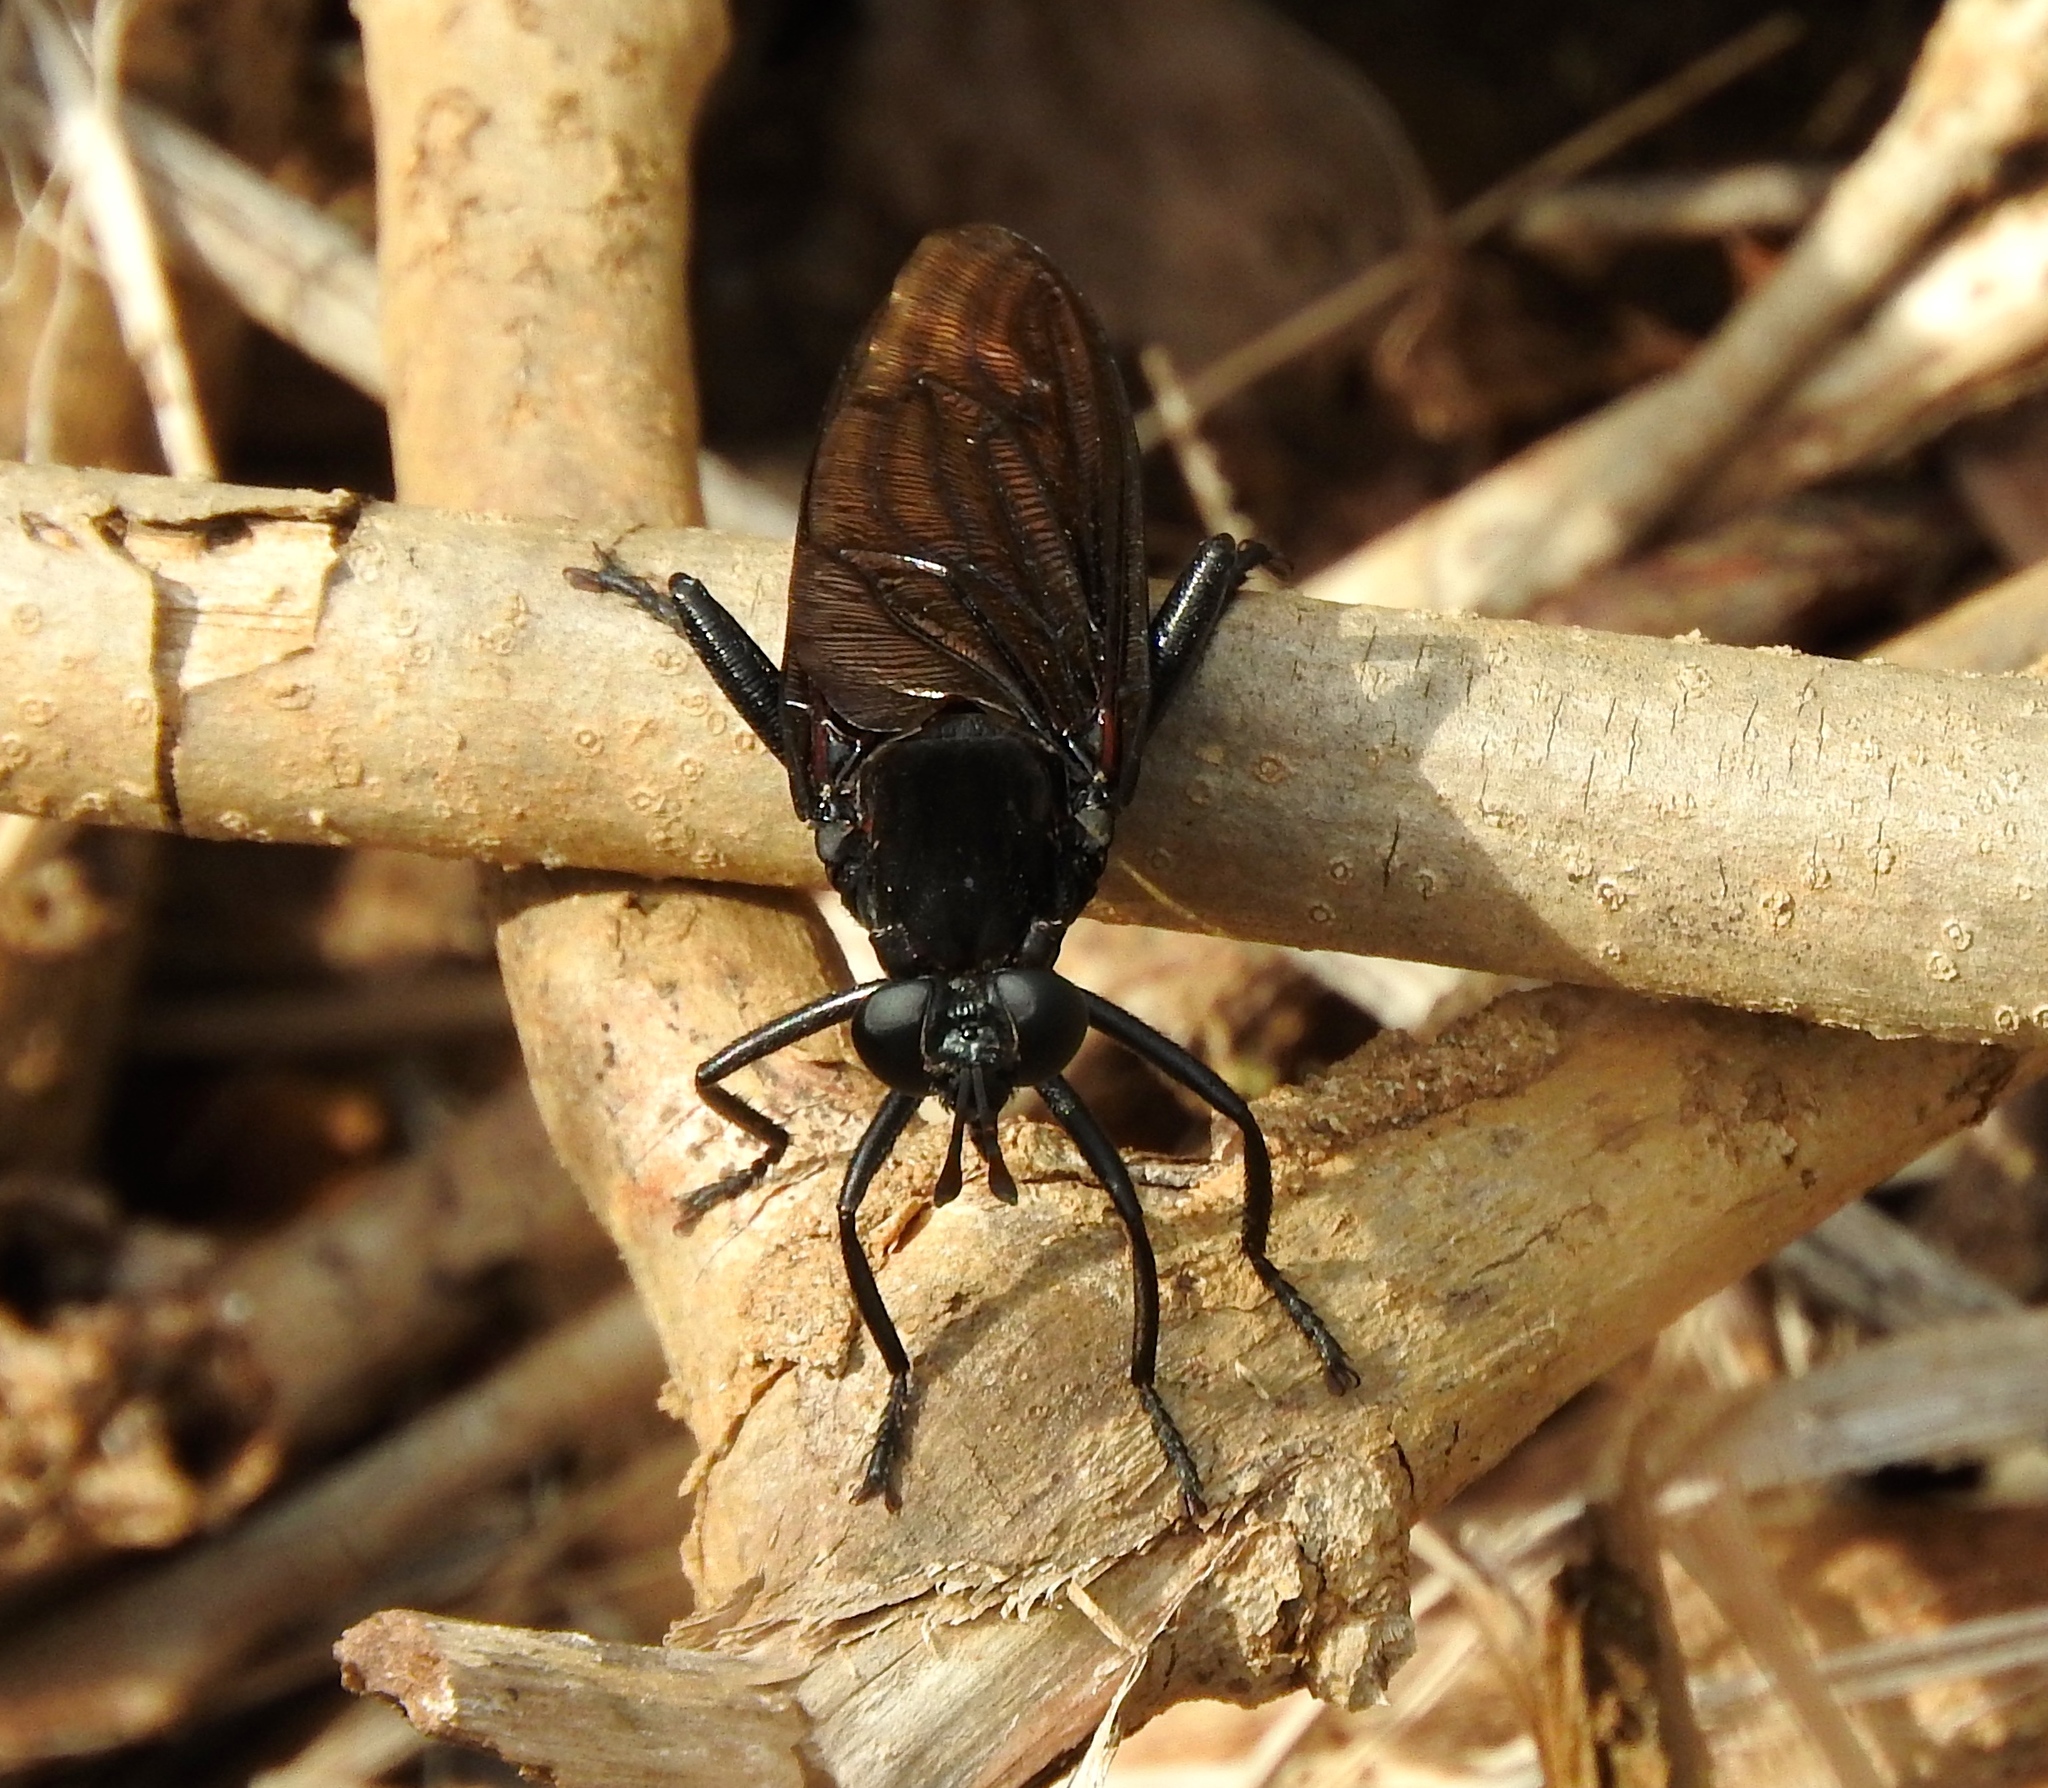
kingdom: Animalia
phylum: Arthropoda
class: Insecta
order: Diptera
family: Mydidae
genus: Mydas
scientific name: Mydas ventralis
